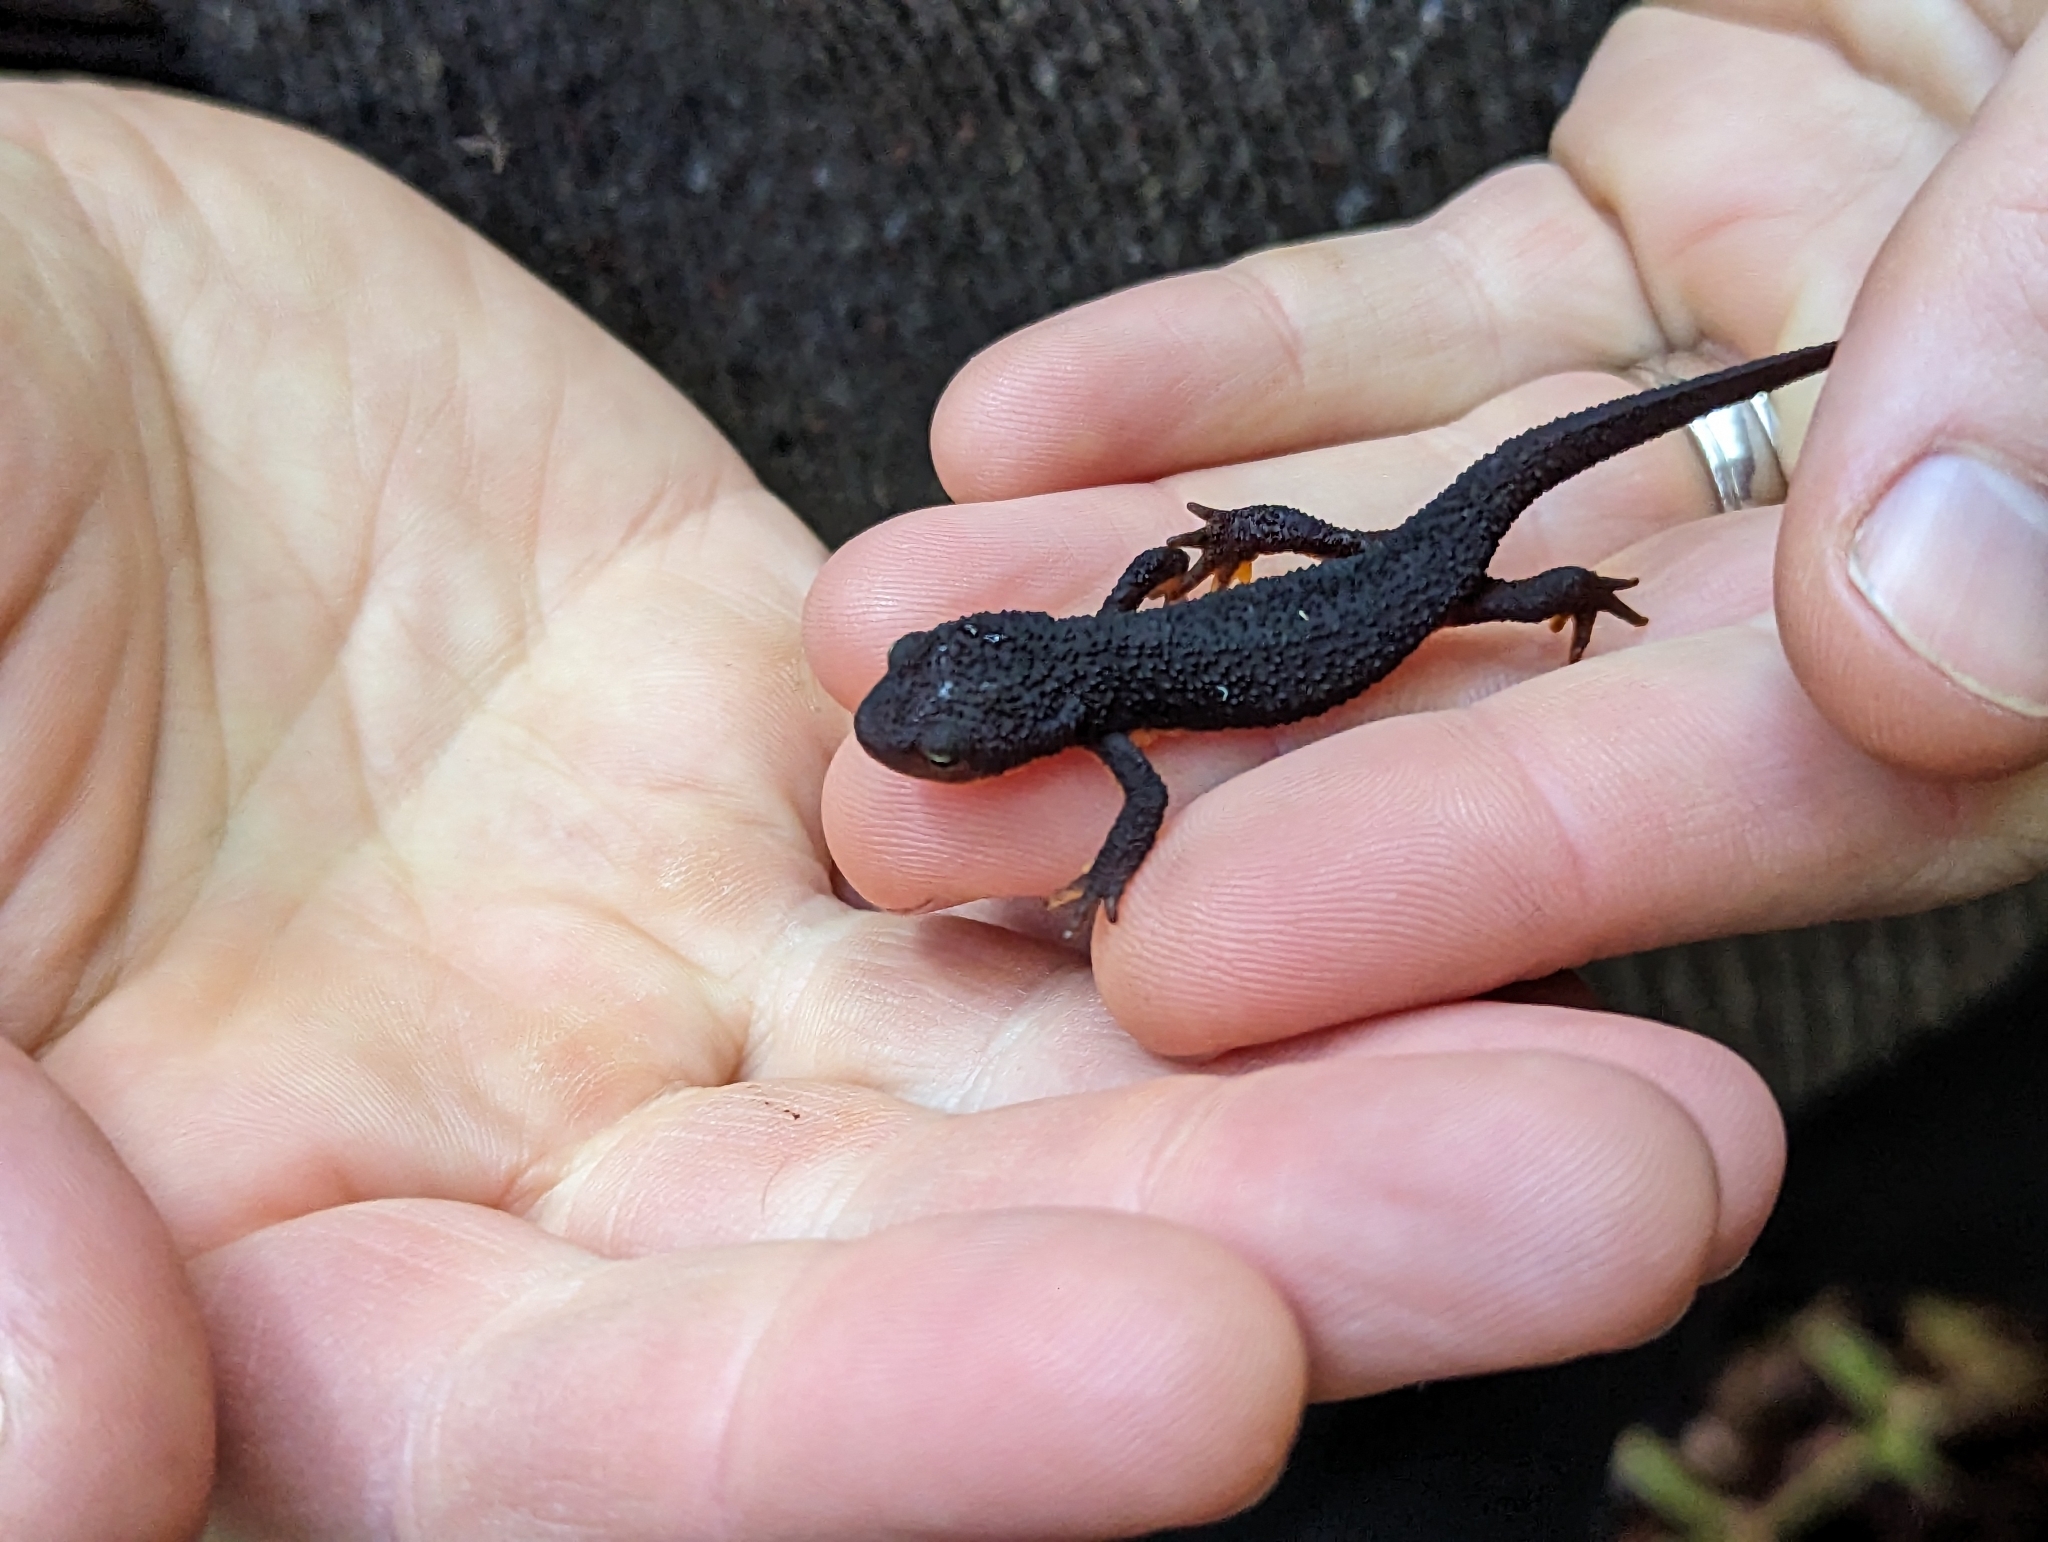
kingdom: Animalia
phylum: Chordata
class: Amphibia
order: Caudata
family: Salamandridae
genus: Taricha
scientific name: Taricha granulosa
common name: Roughskin newt
